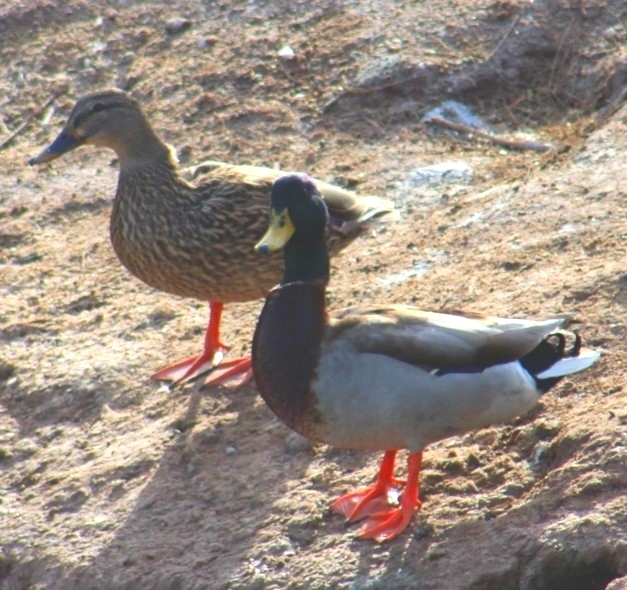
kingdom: Animalia
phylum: Chordata
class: Aves
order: Anseriformes
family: Anatidae
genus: Anas
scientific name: Anas platyrhynchos
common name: Mallard
